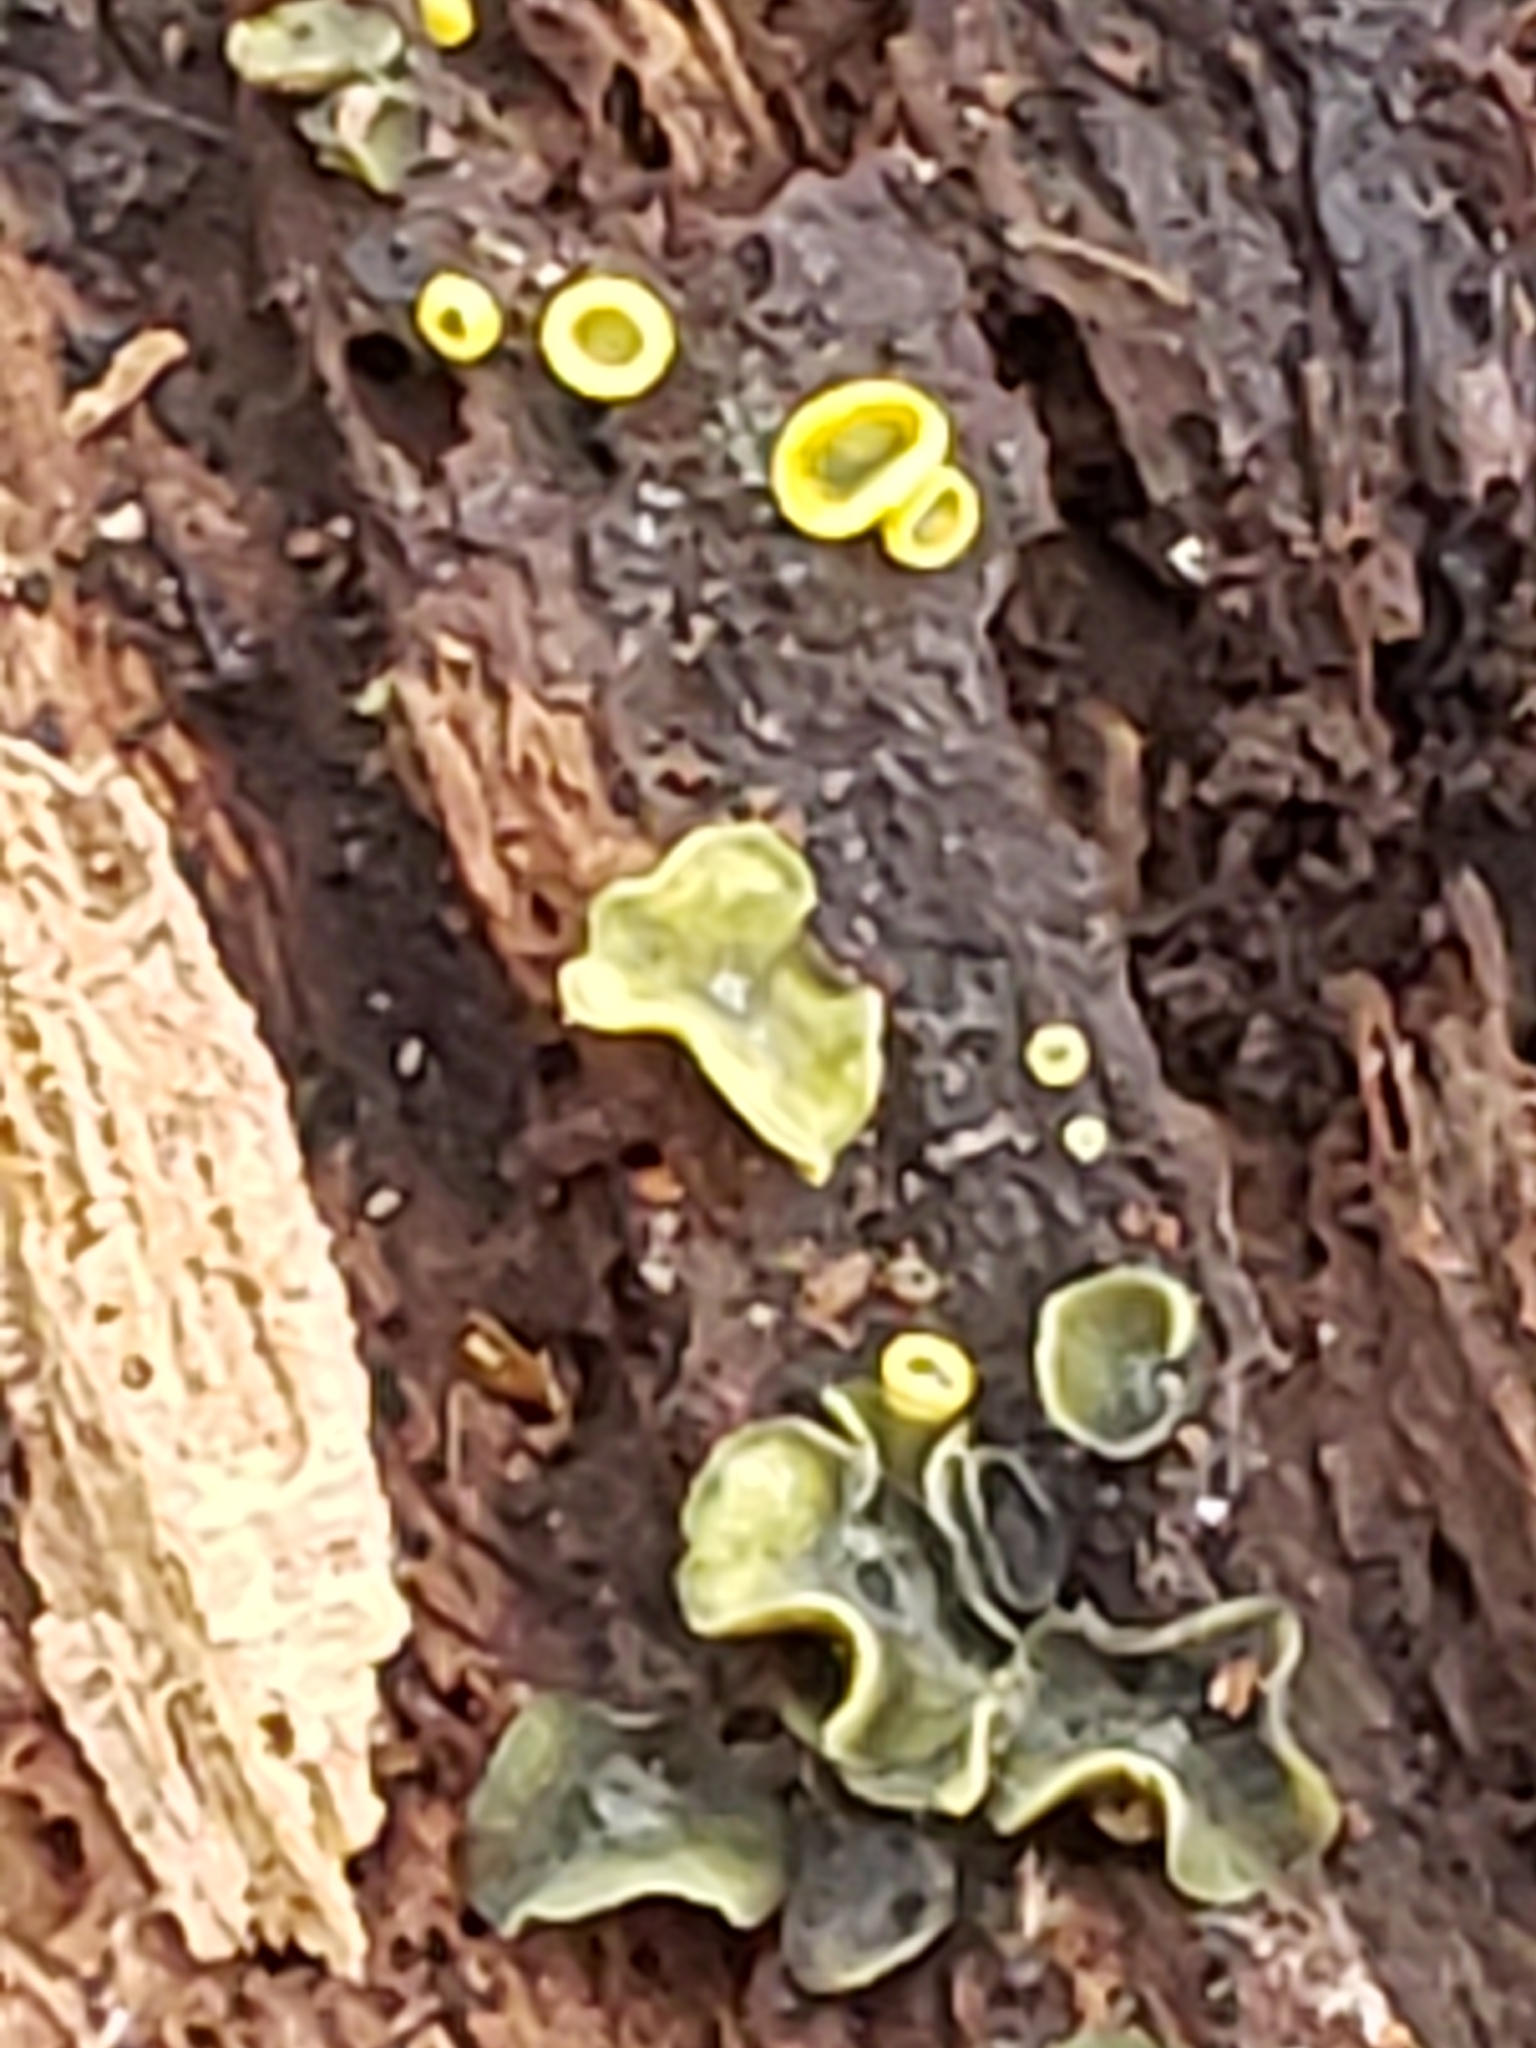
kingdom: Fungi
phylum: Ascomycota
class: Leotiomycetes
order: Helotiales
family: Chlorospleniaceae
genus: Chlorosplenium
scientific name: Chlorosplenium chlora
